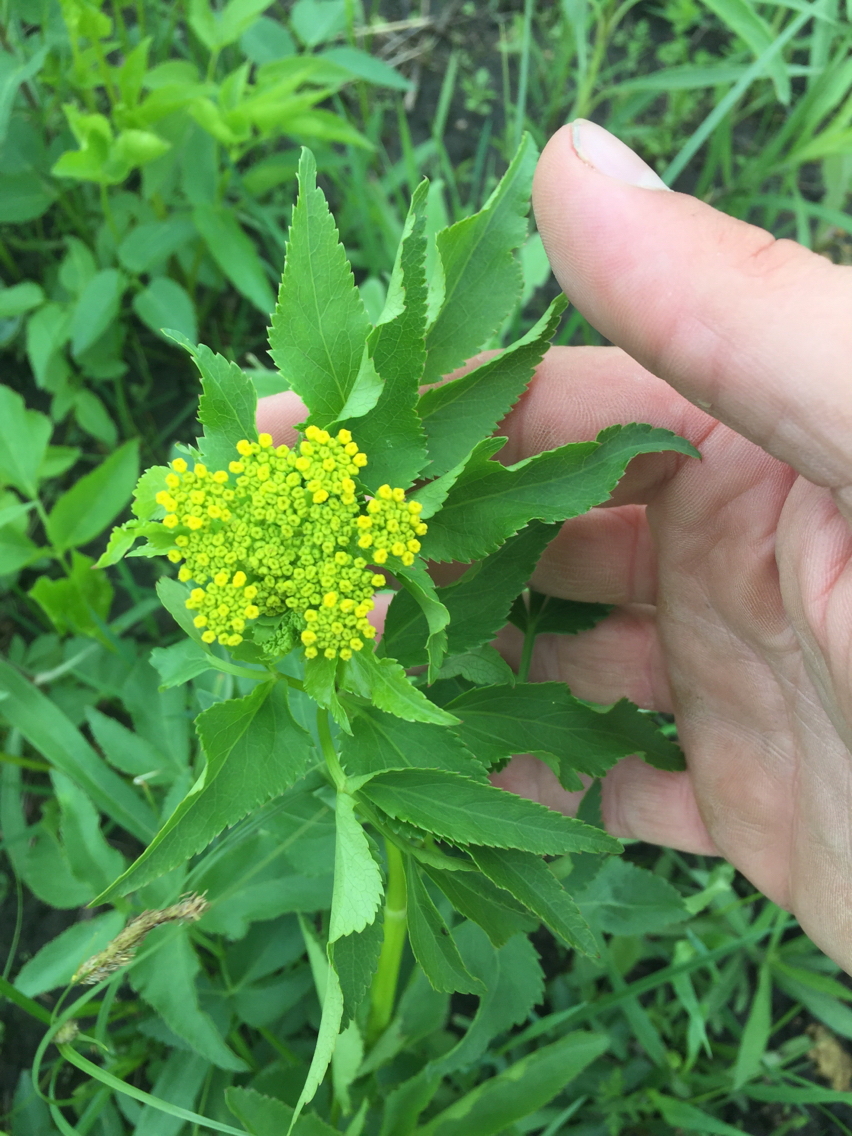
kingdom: Plantae
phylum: Tracheophyta
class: Magnoliopsida
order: Apiales
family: Apiaceae
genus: Zizia
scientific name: Zizia aurea
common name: Golden alexanders
